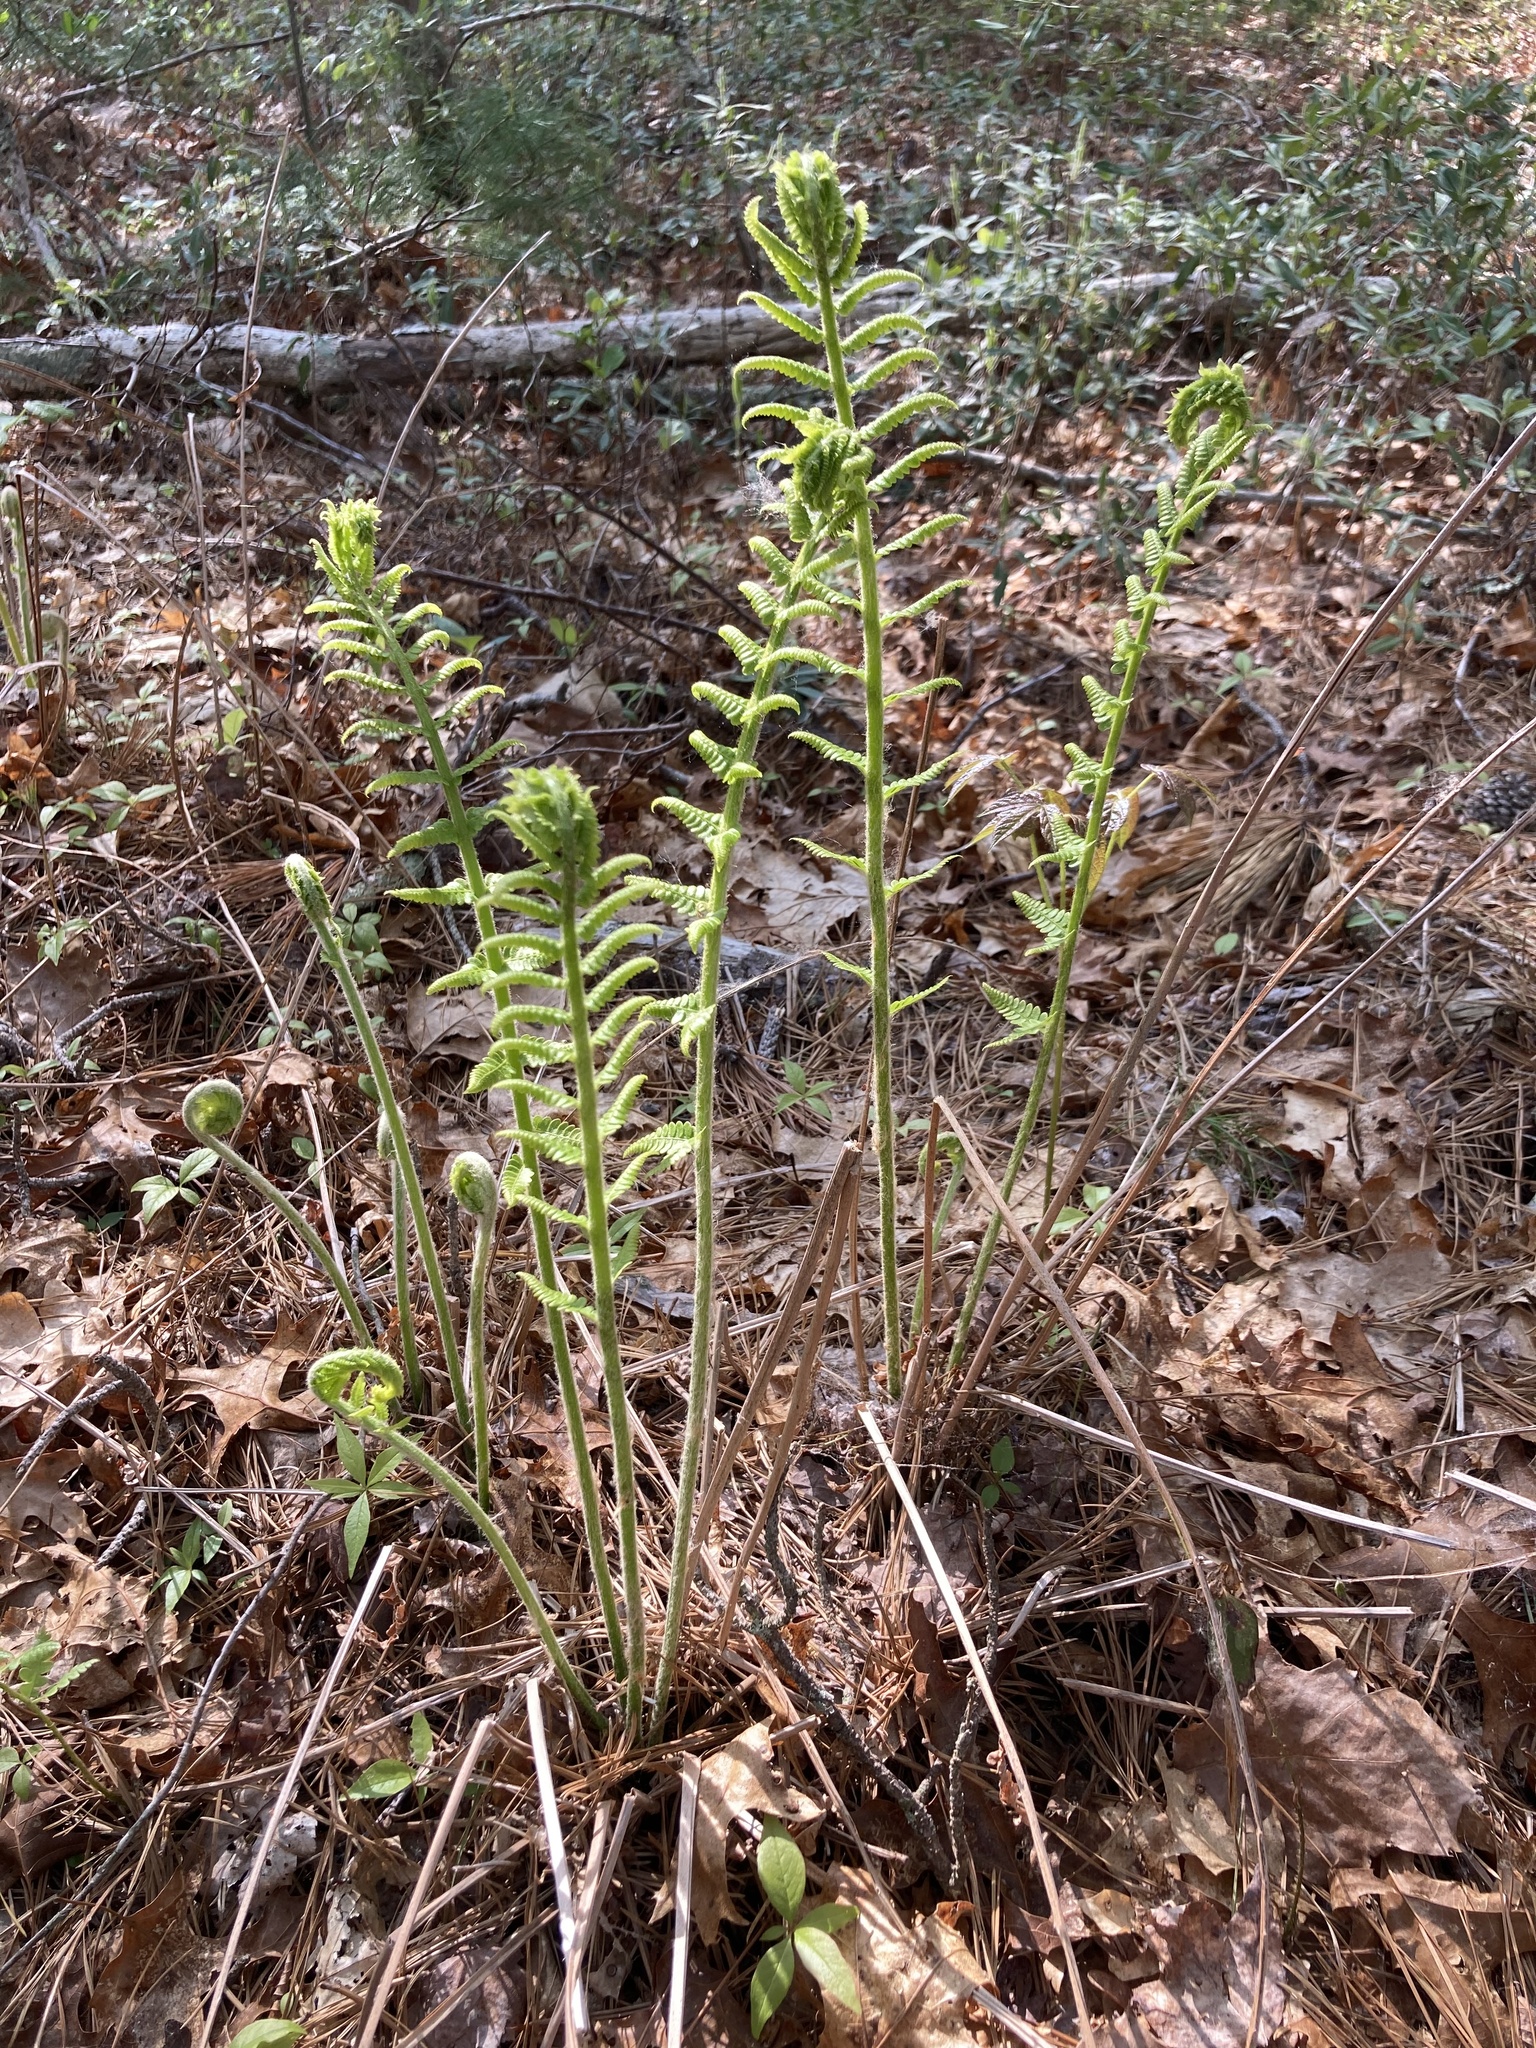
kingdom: Plantae
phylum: Tracheophyta
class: Polypodiopsida
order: Osmundales
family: Osmundaceae
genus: Osmundastrum
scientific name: Osmundastrum cinnamomeum
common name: Cinnamon fern
